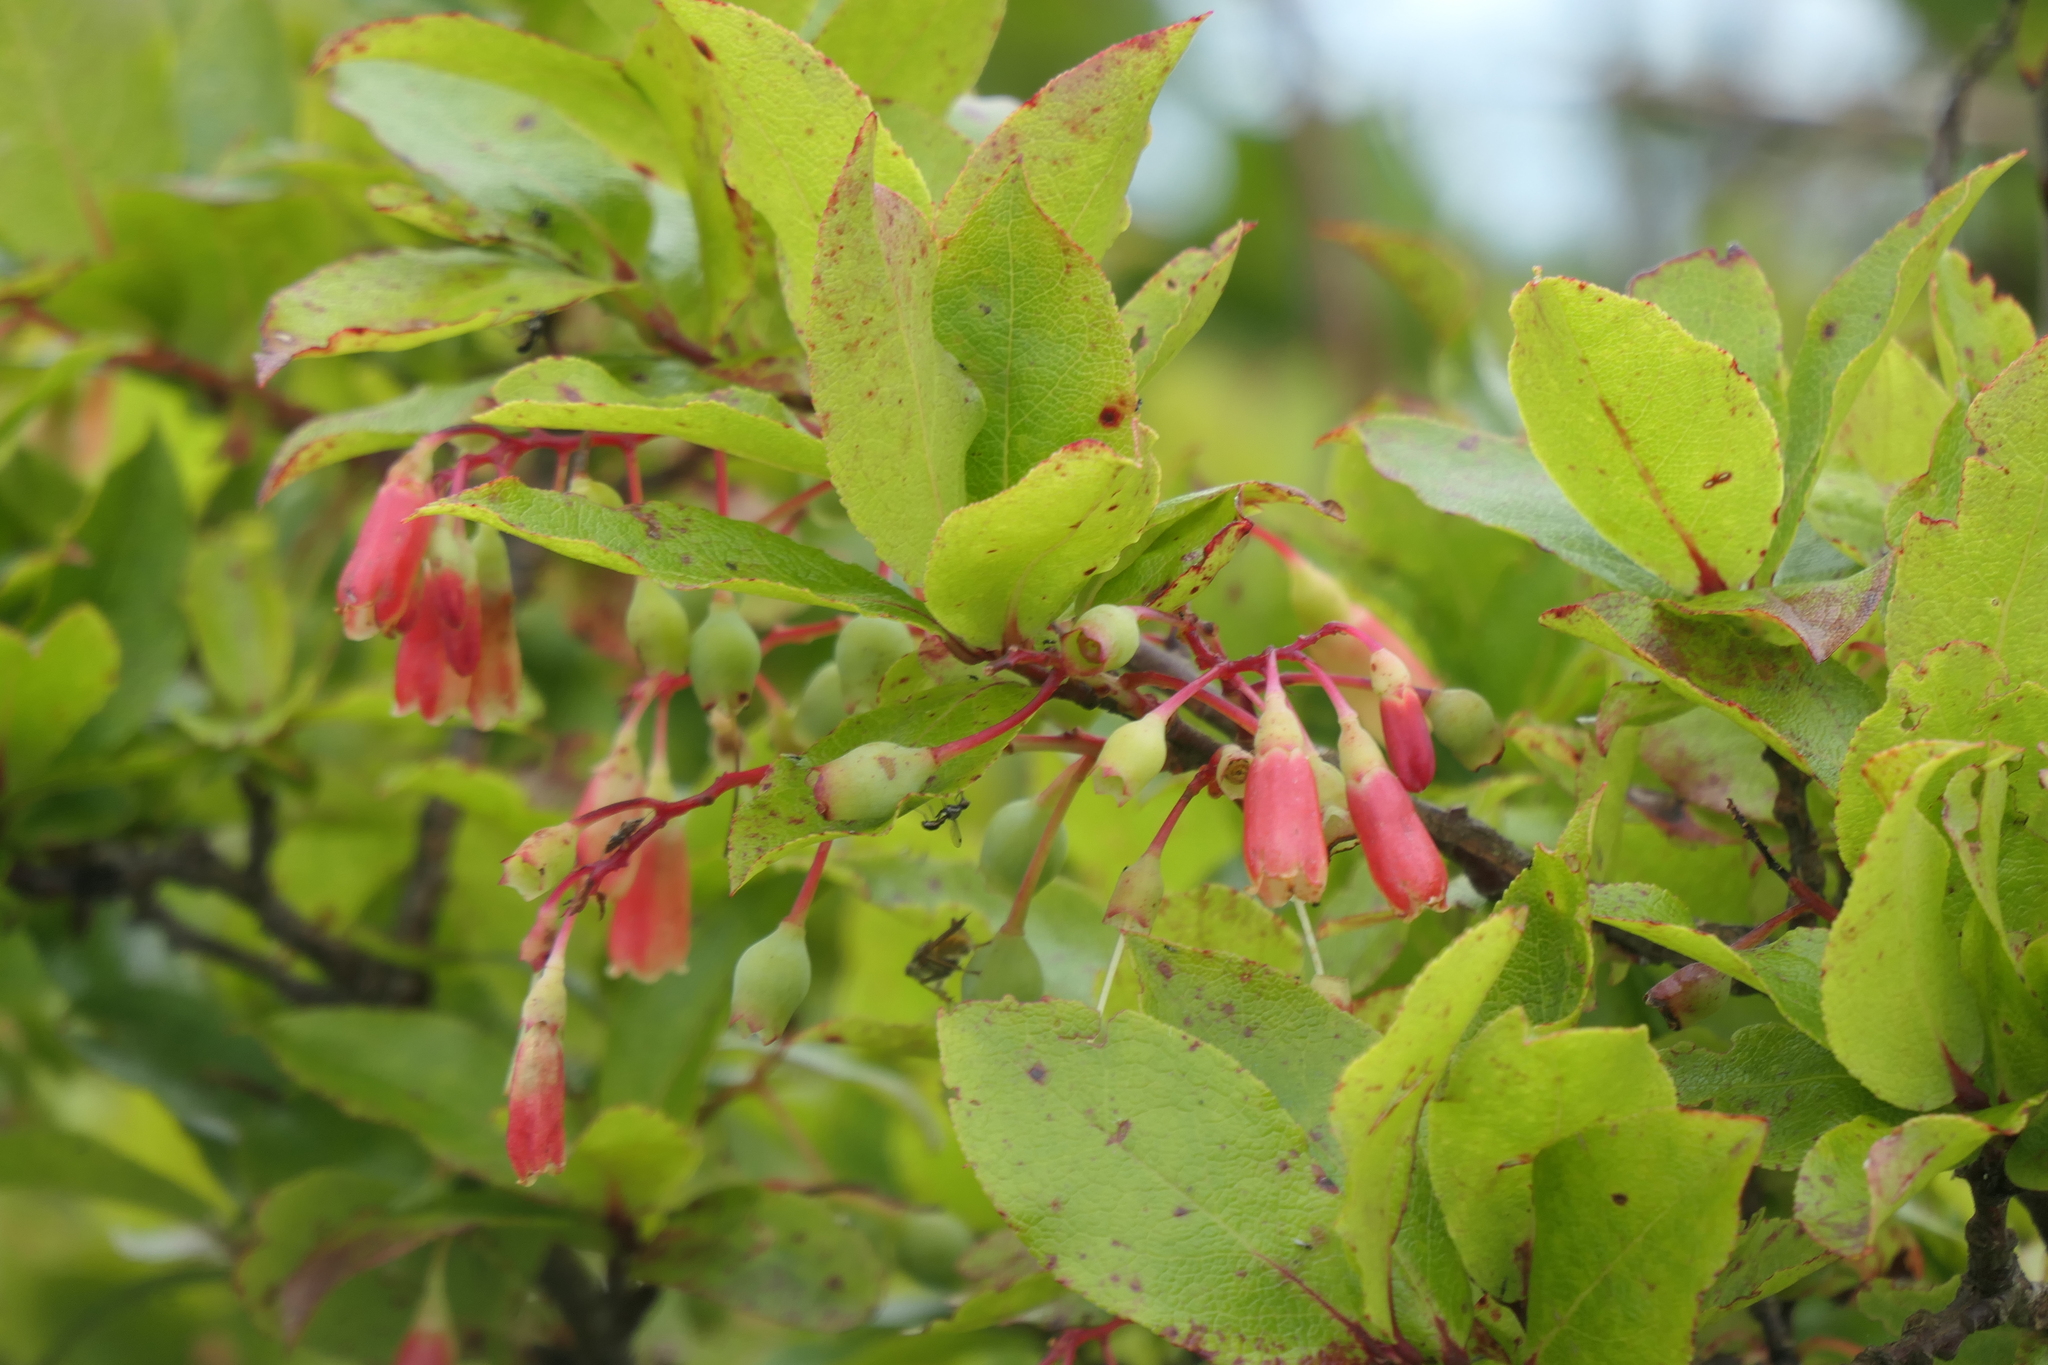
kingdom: Plantae
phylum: Tracheophyta
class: Magnoliopsida
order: Ericales
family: Ericaceae
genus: Vaccinium
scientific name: Vaccinium cylindraceum
